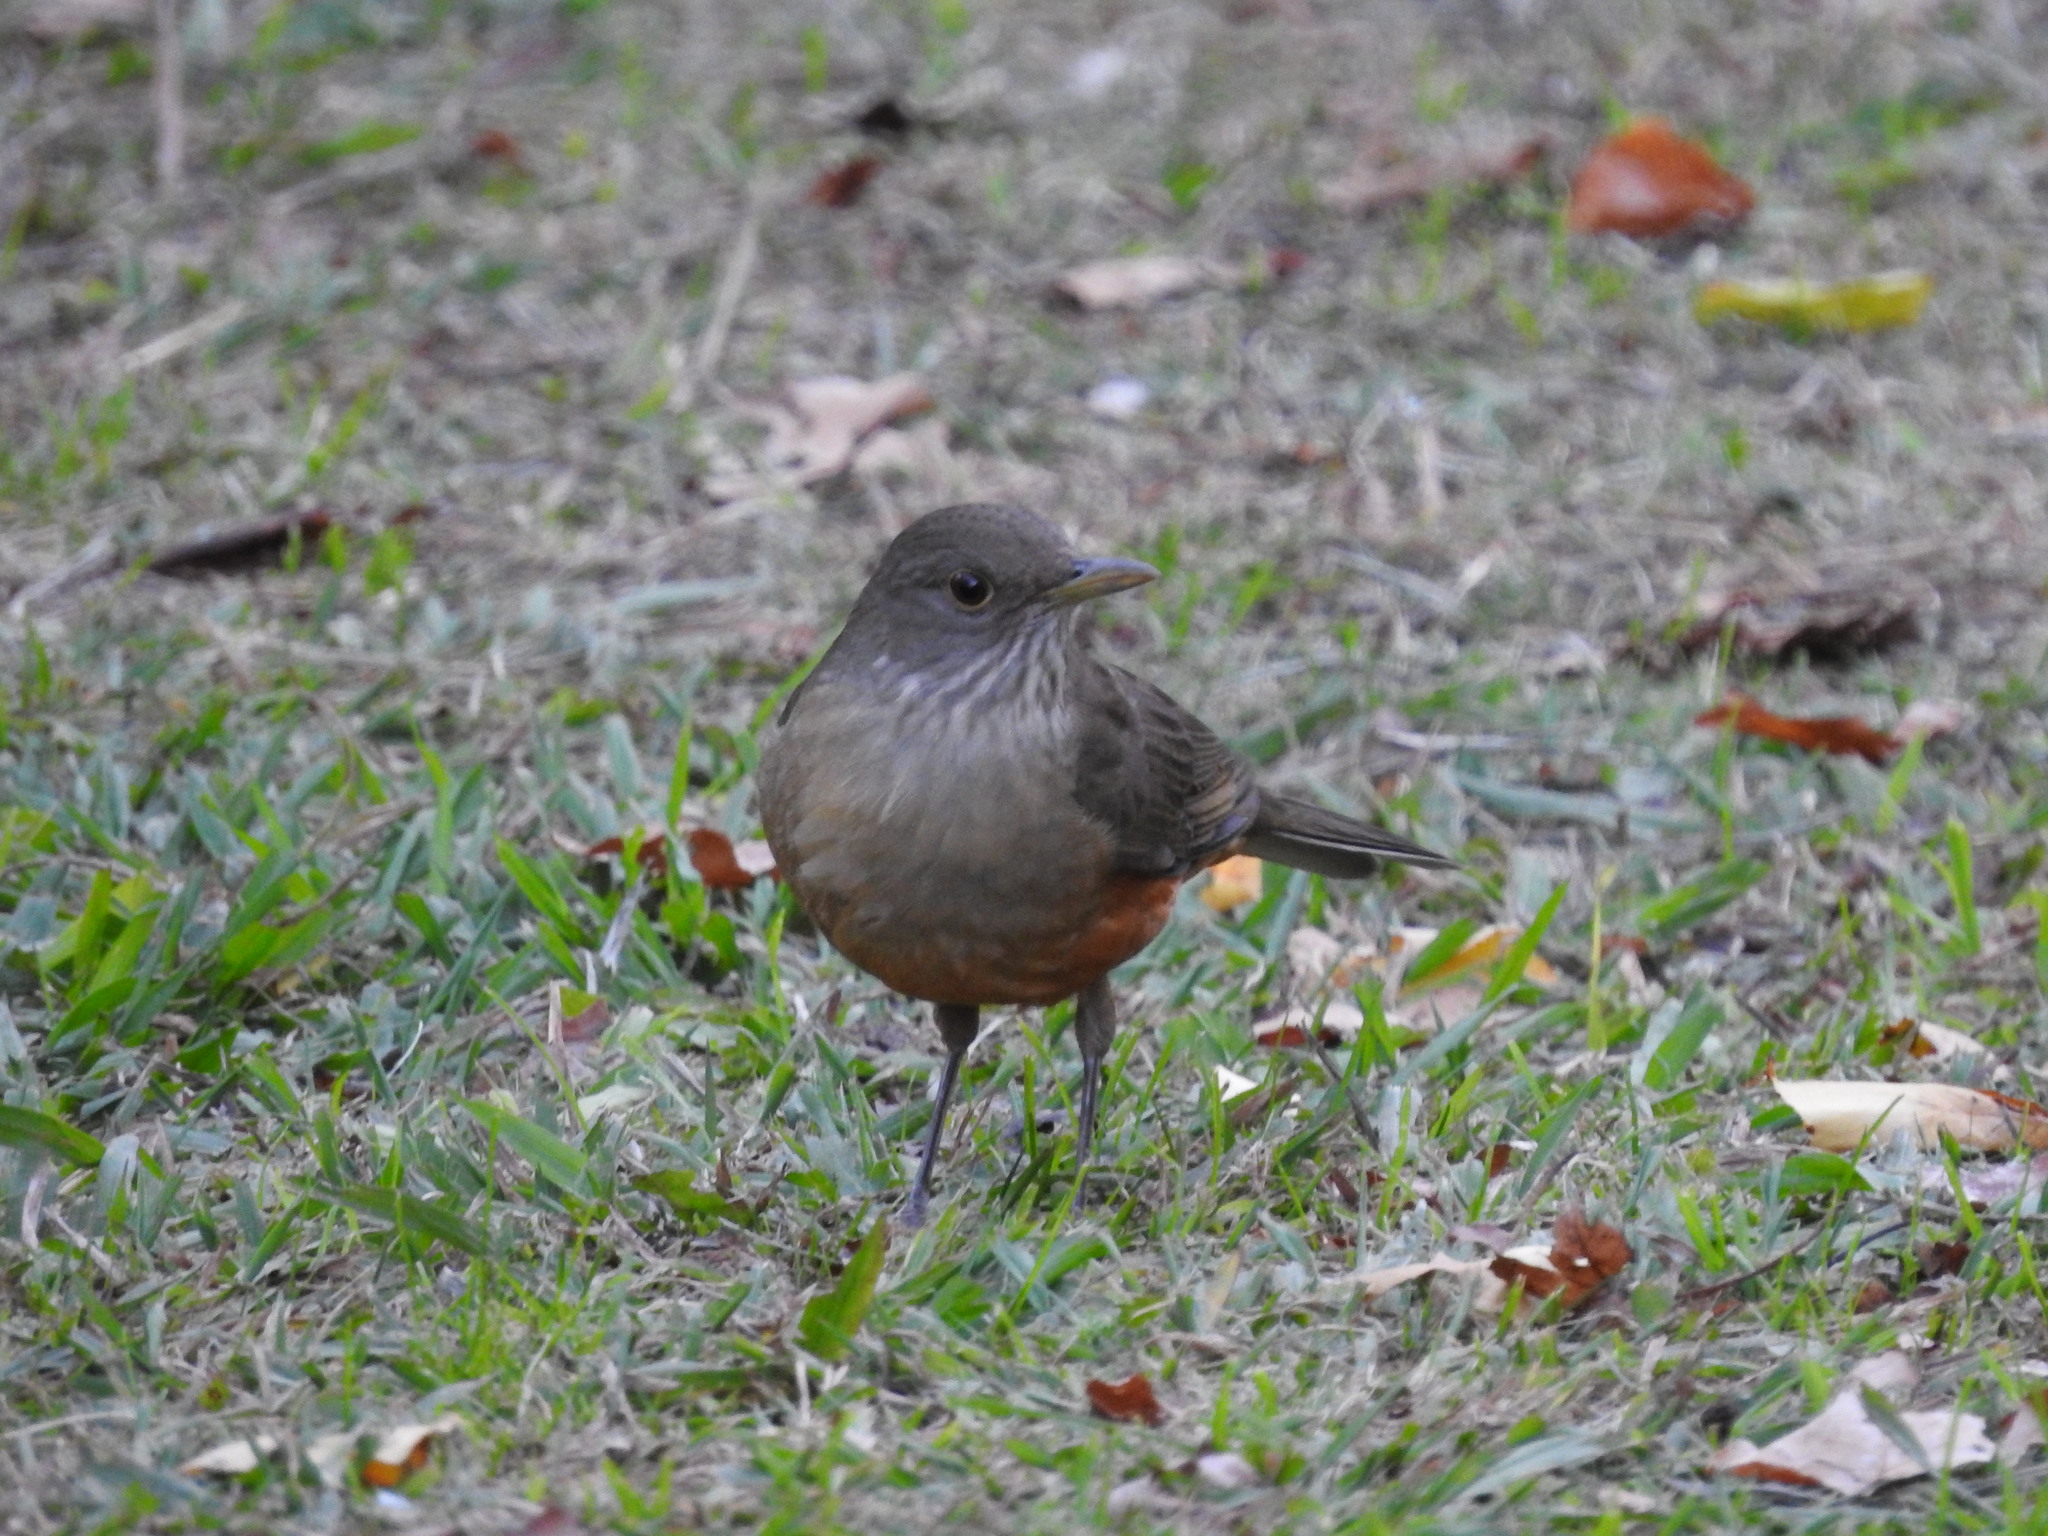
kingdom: Animalia
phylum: Chordata
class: Aves
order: Passeriformes
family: Turdidae
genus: Turdus
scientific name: Turdus rufiventris
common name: Rufous-bellied thrush
